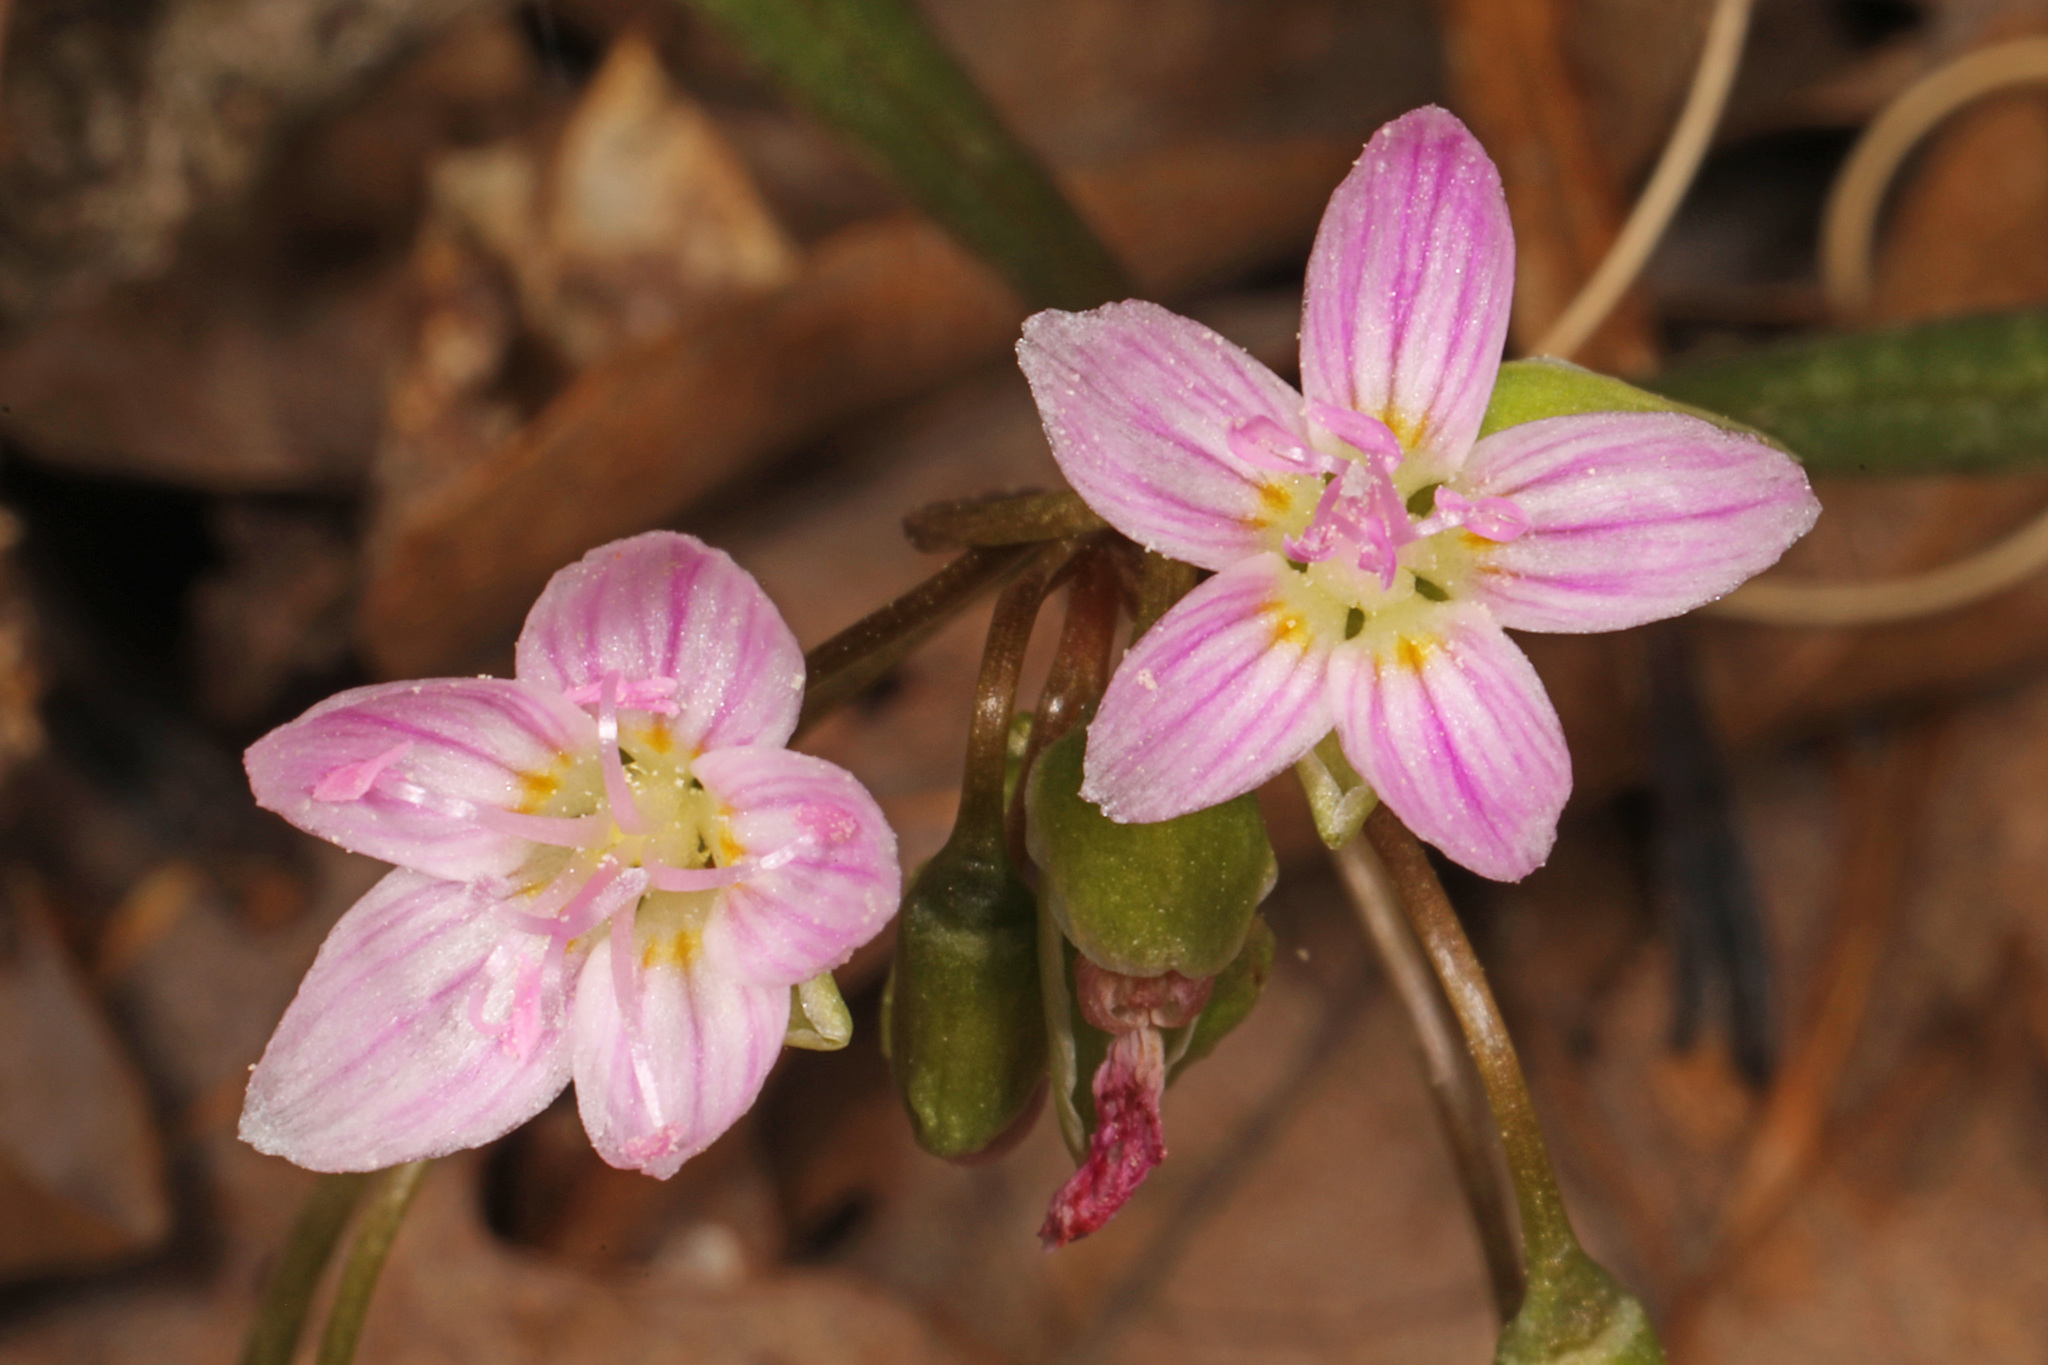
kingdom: Plantae
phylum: Tracheophyta
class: Magnoliopsida
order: Caryophyllales
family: Montiaceae
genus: Claytonia
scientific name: Claytonia virginica
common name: Virginia springbeauty
